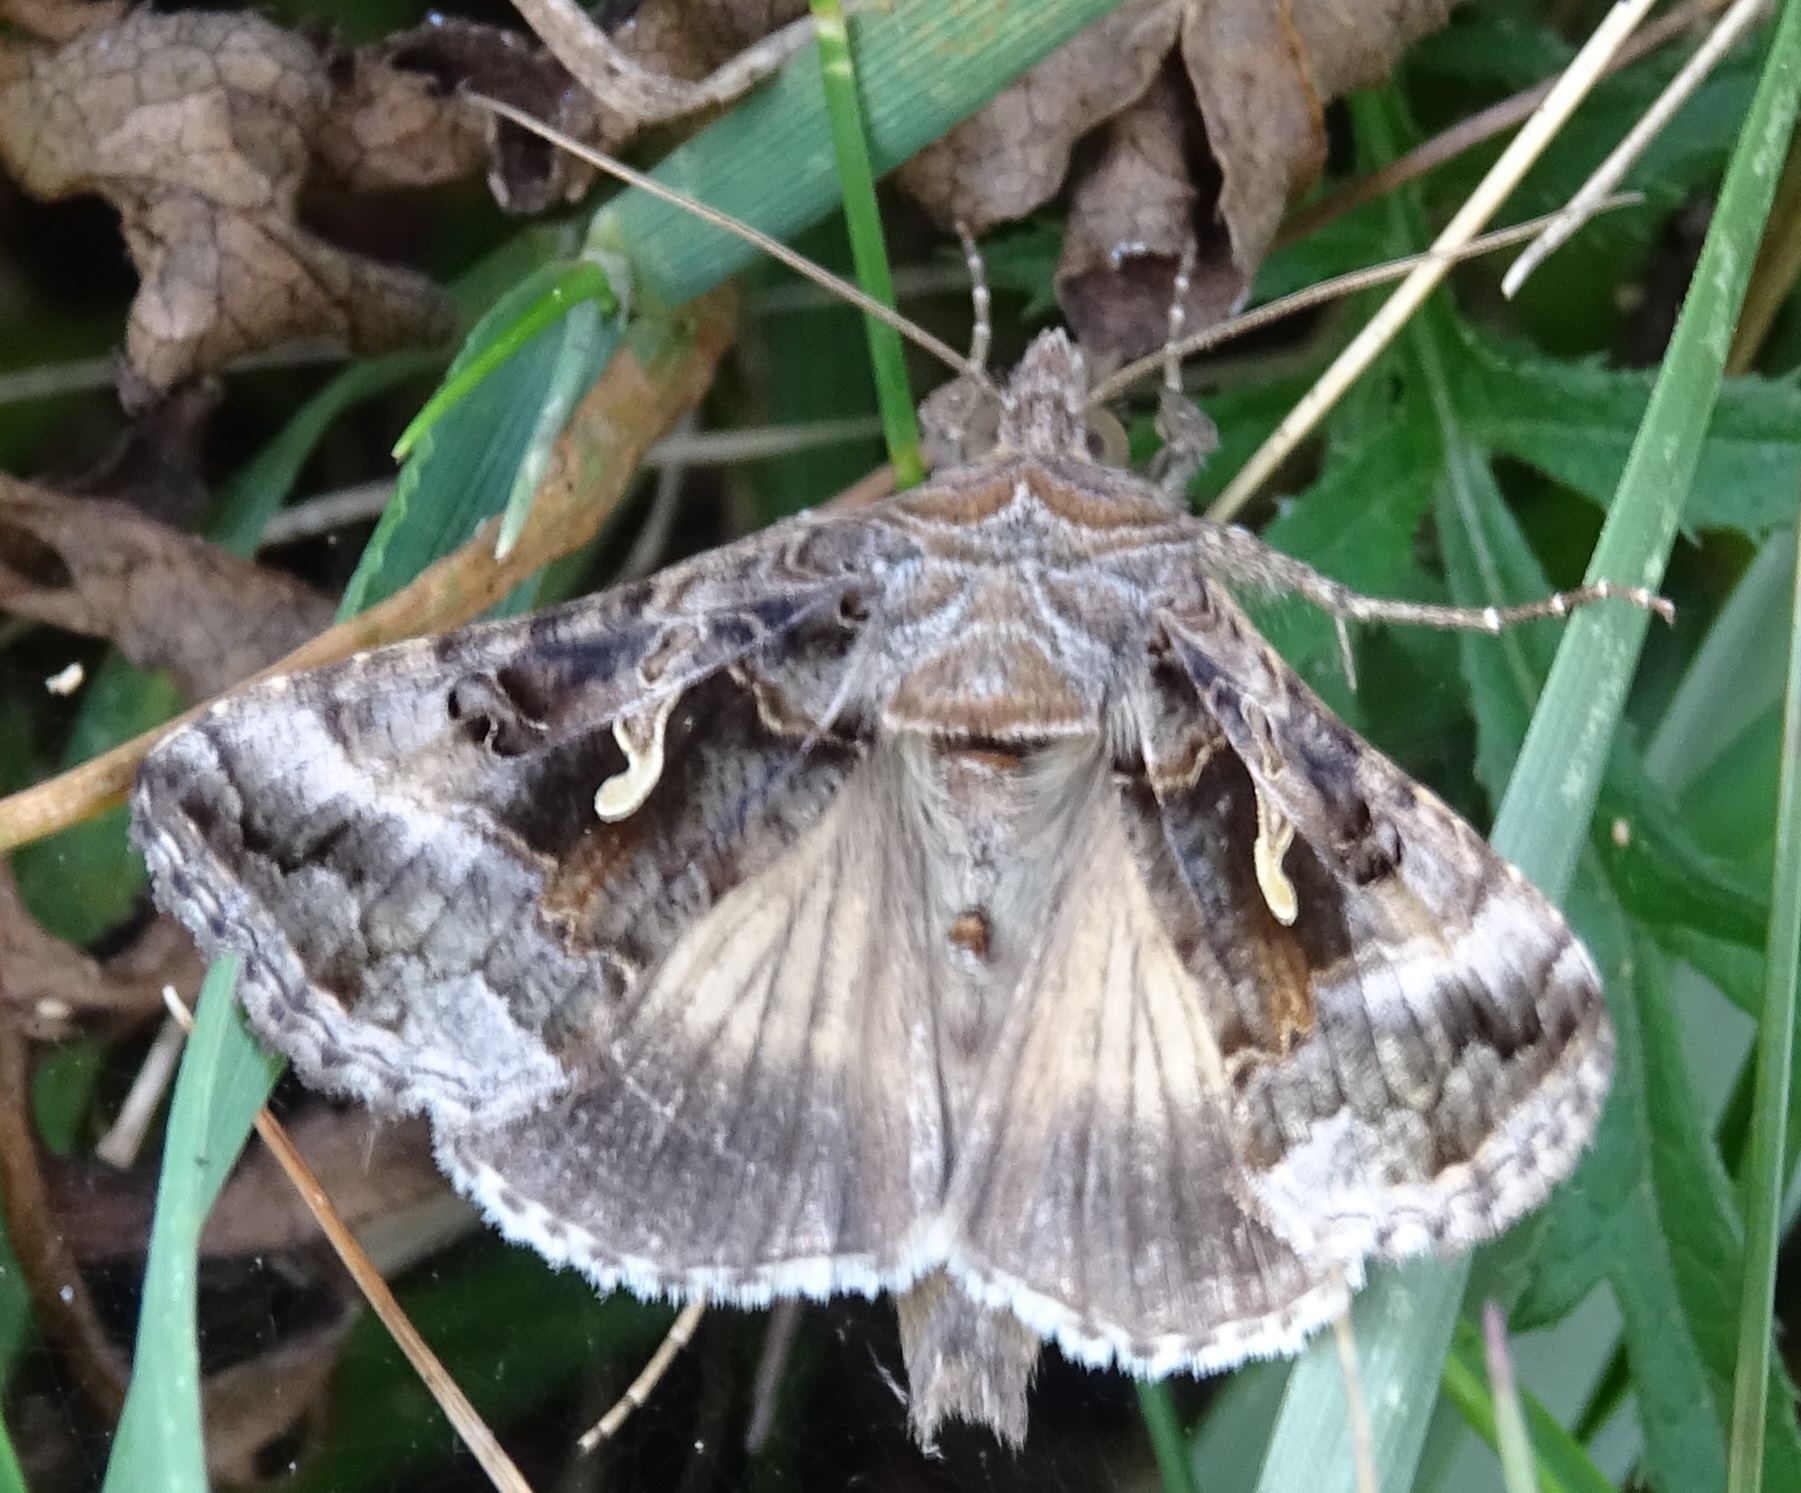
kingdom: Animalia
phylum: Arthropoda
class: Insecta
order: Lepidoptera
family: Noctuidae
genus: Autographa
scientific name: Autographa gamma
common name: Silver y
